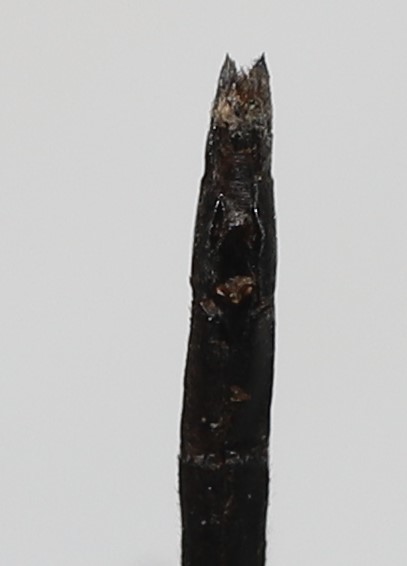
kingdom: Animalia
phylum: Arthropoda
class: Insecta
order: Odonata
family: Libellulidae
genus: Leucorrhinia
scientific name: Leucorrhinia proxima
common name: Belted whiteface
